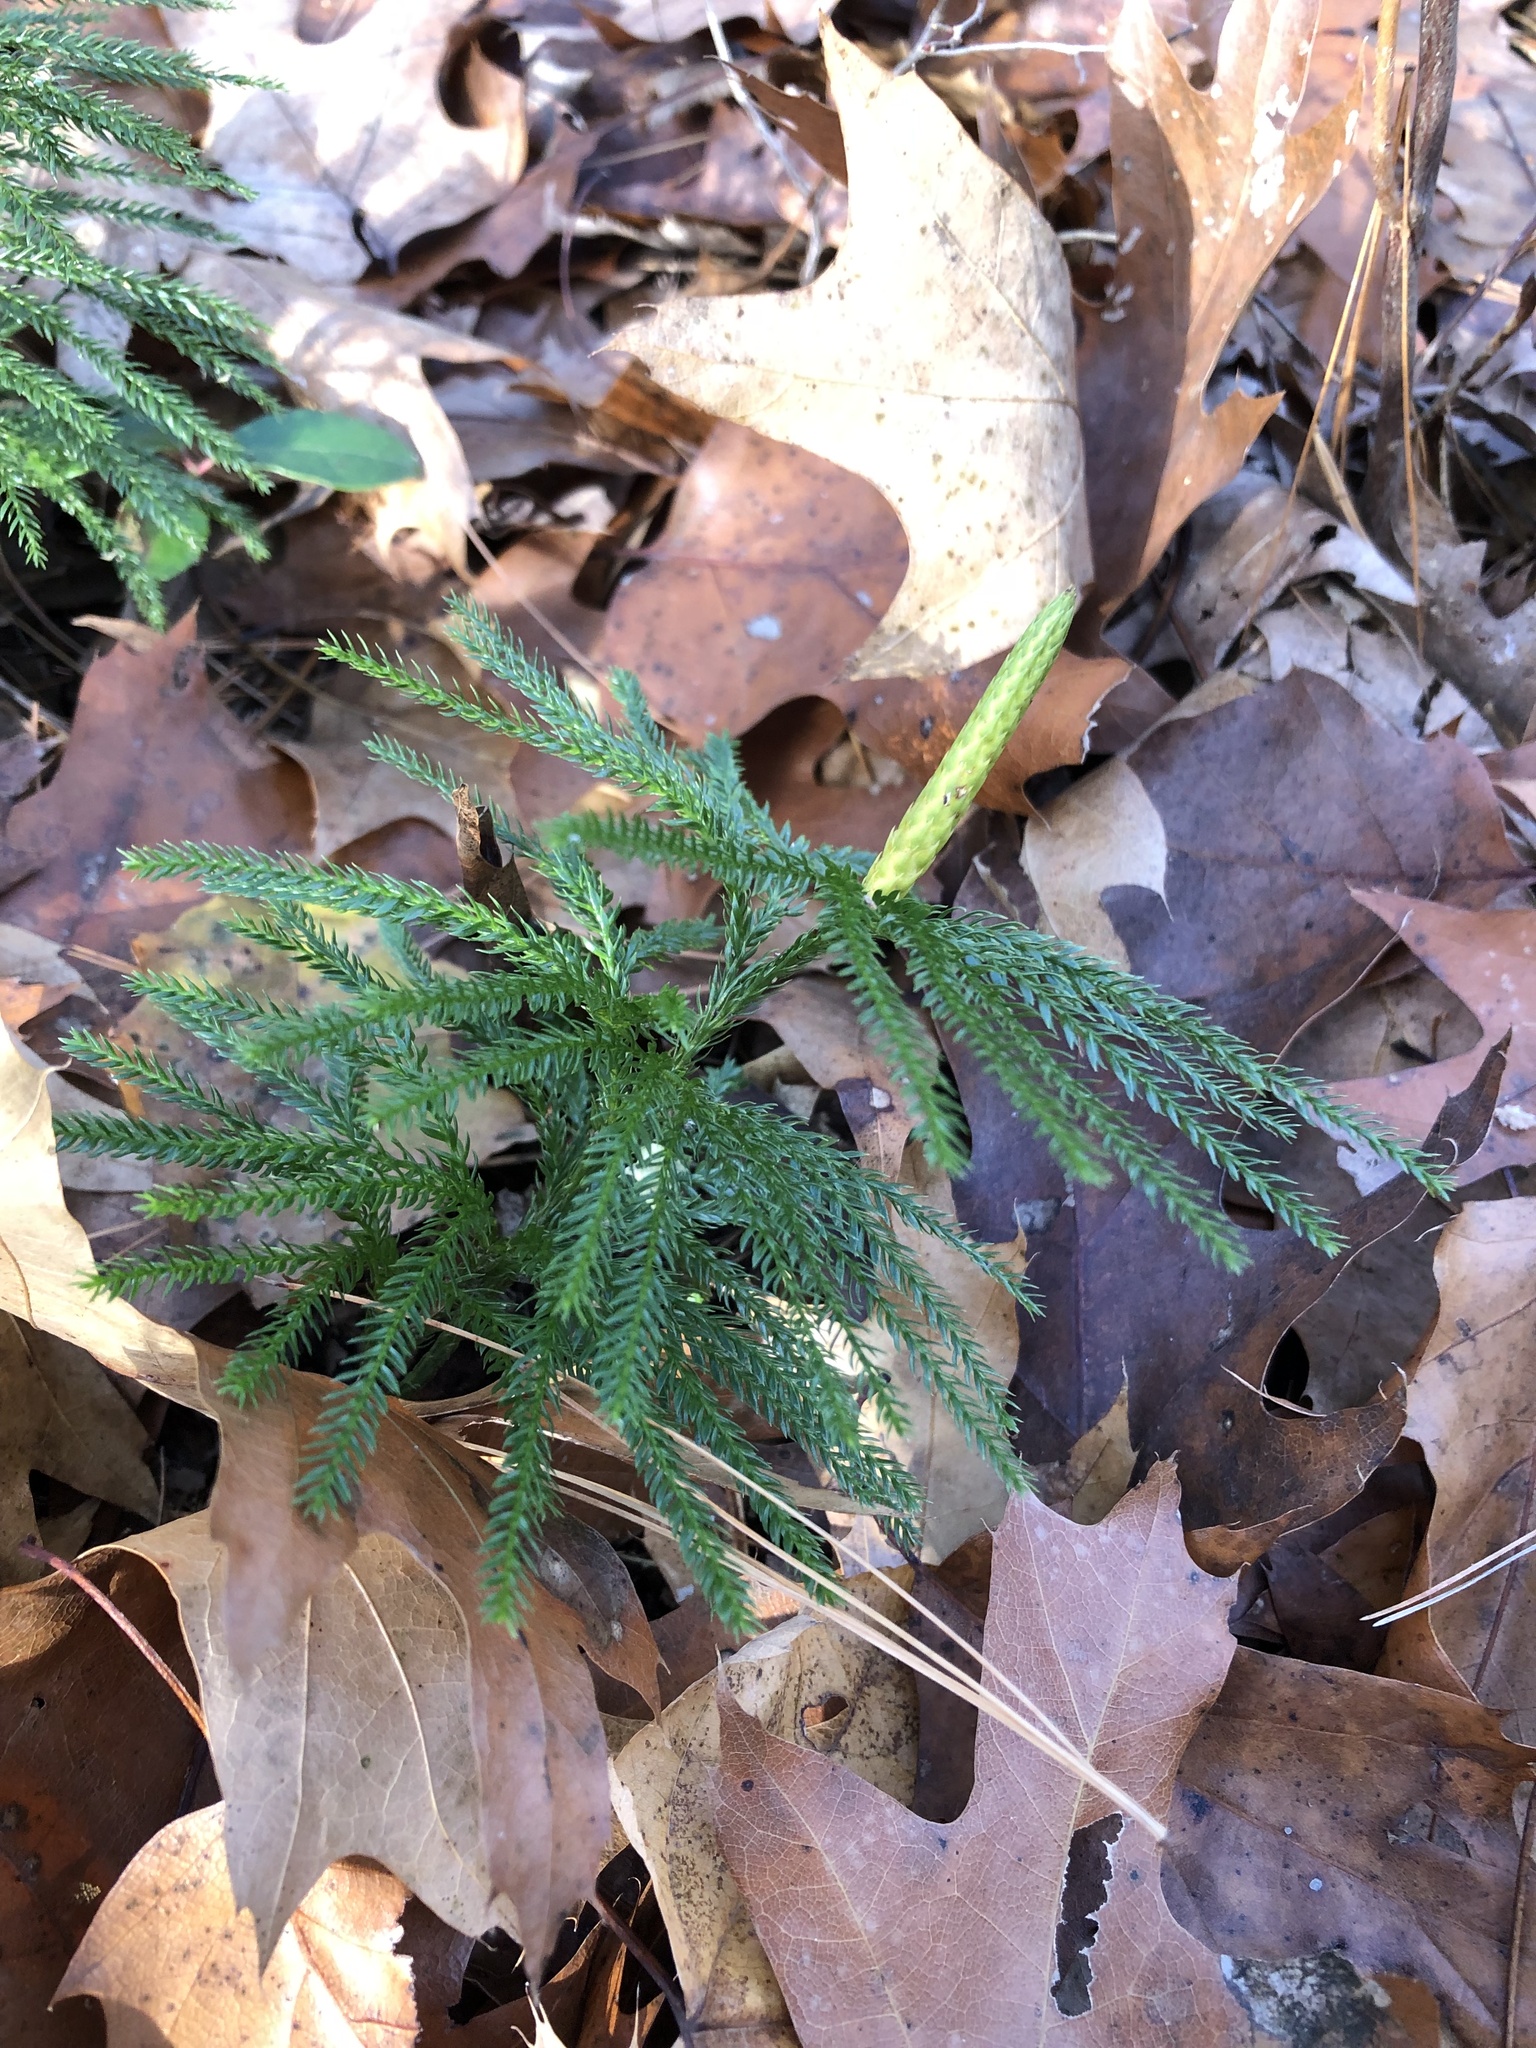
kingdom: Plantae
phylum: Tracheophyta
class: Lycopodiopsida
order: Lycopodiales
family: Lycopodiaceae
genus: Dendrolycopodium
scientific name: Dendrolycopodium obscurum
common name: Common ground-pine
